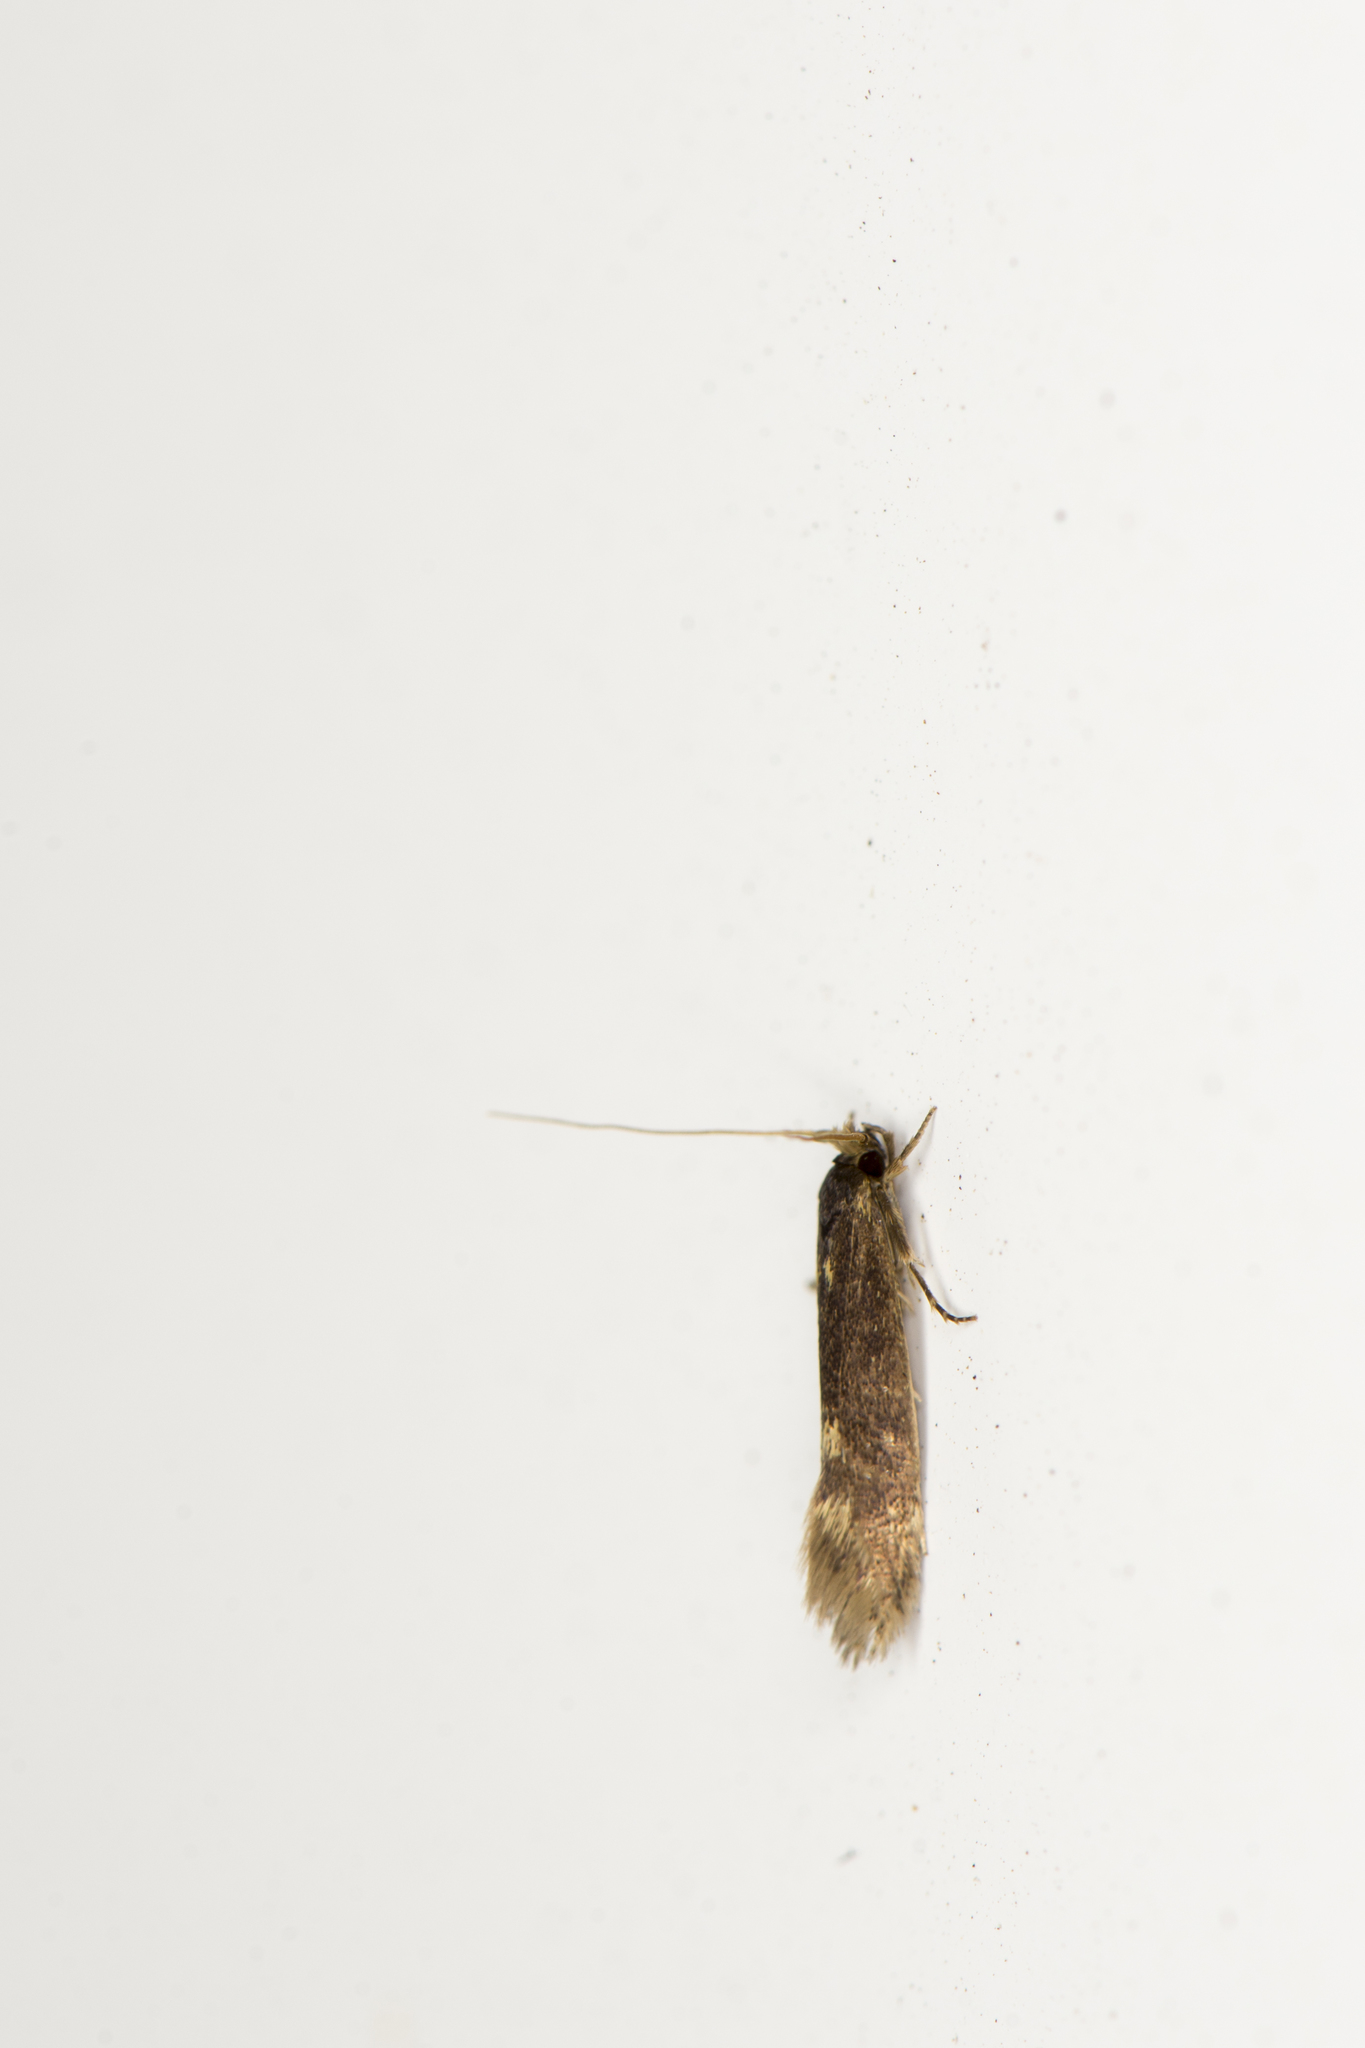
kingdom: Animalia
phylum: Arthropoda
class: Insecta
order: Lepidoptera
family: Tineidae
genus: Opogona
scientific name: Opogona omoscopa
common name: Moth
